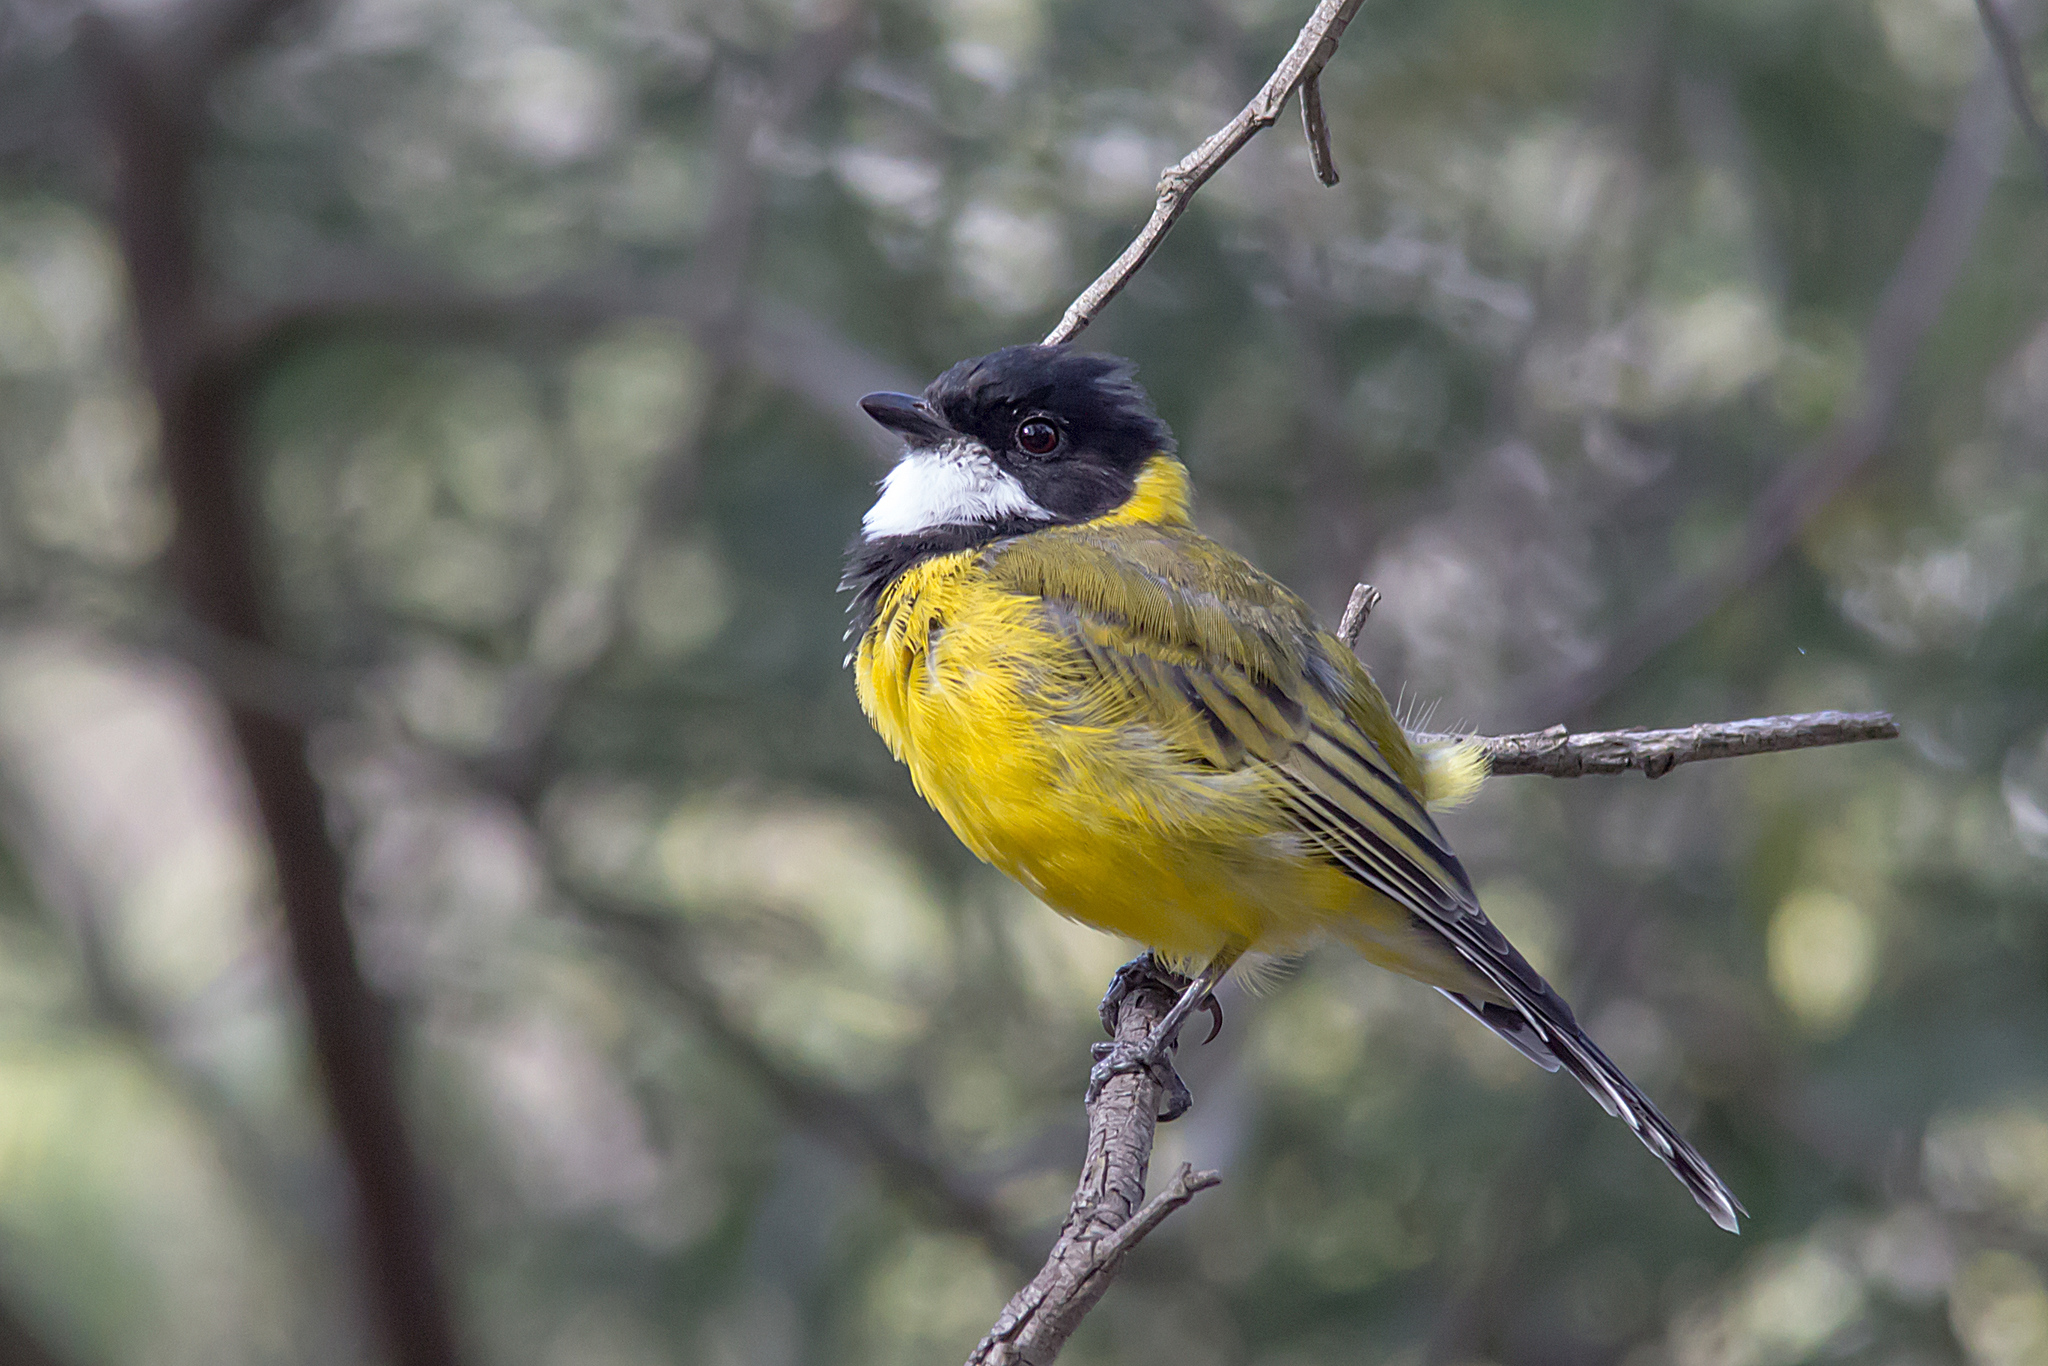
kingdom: Animalia
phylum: Chordata
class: Aves
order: Passeriformes
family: Pachycephalidae
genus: Pachycephala
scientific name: Pachycephala pectoralis
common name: Australian golden whistler
